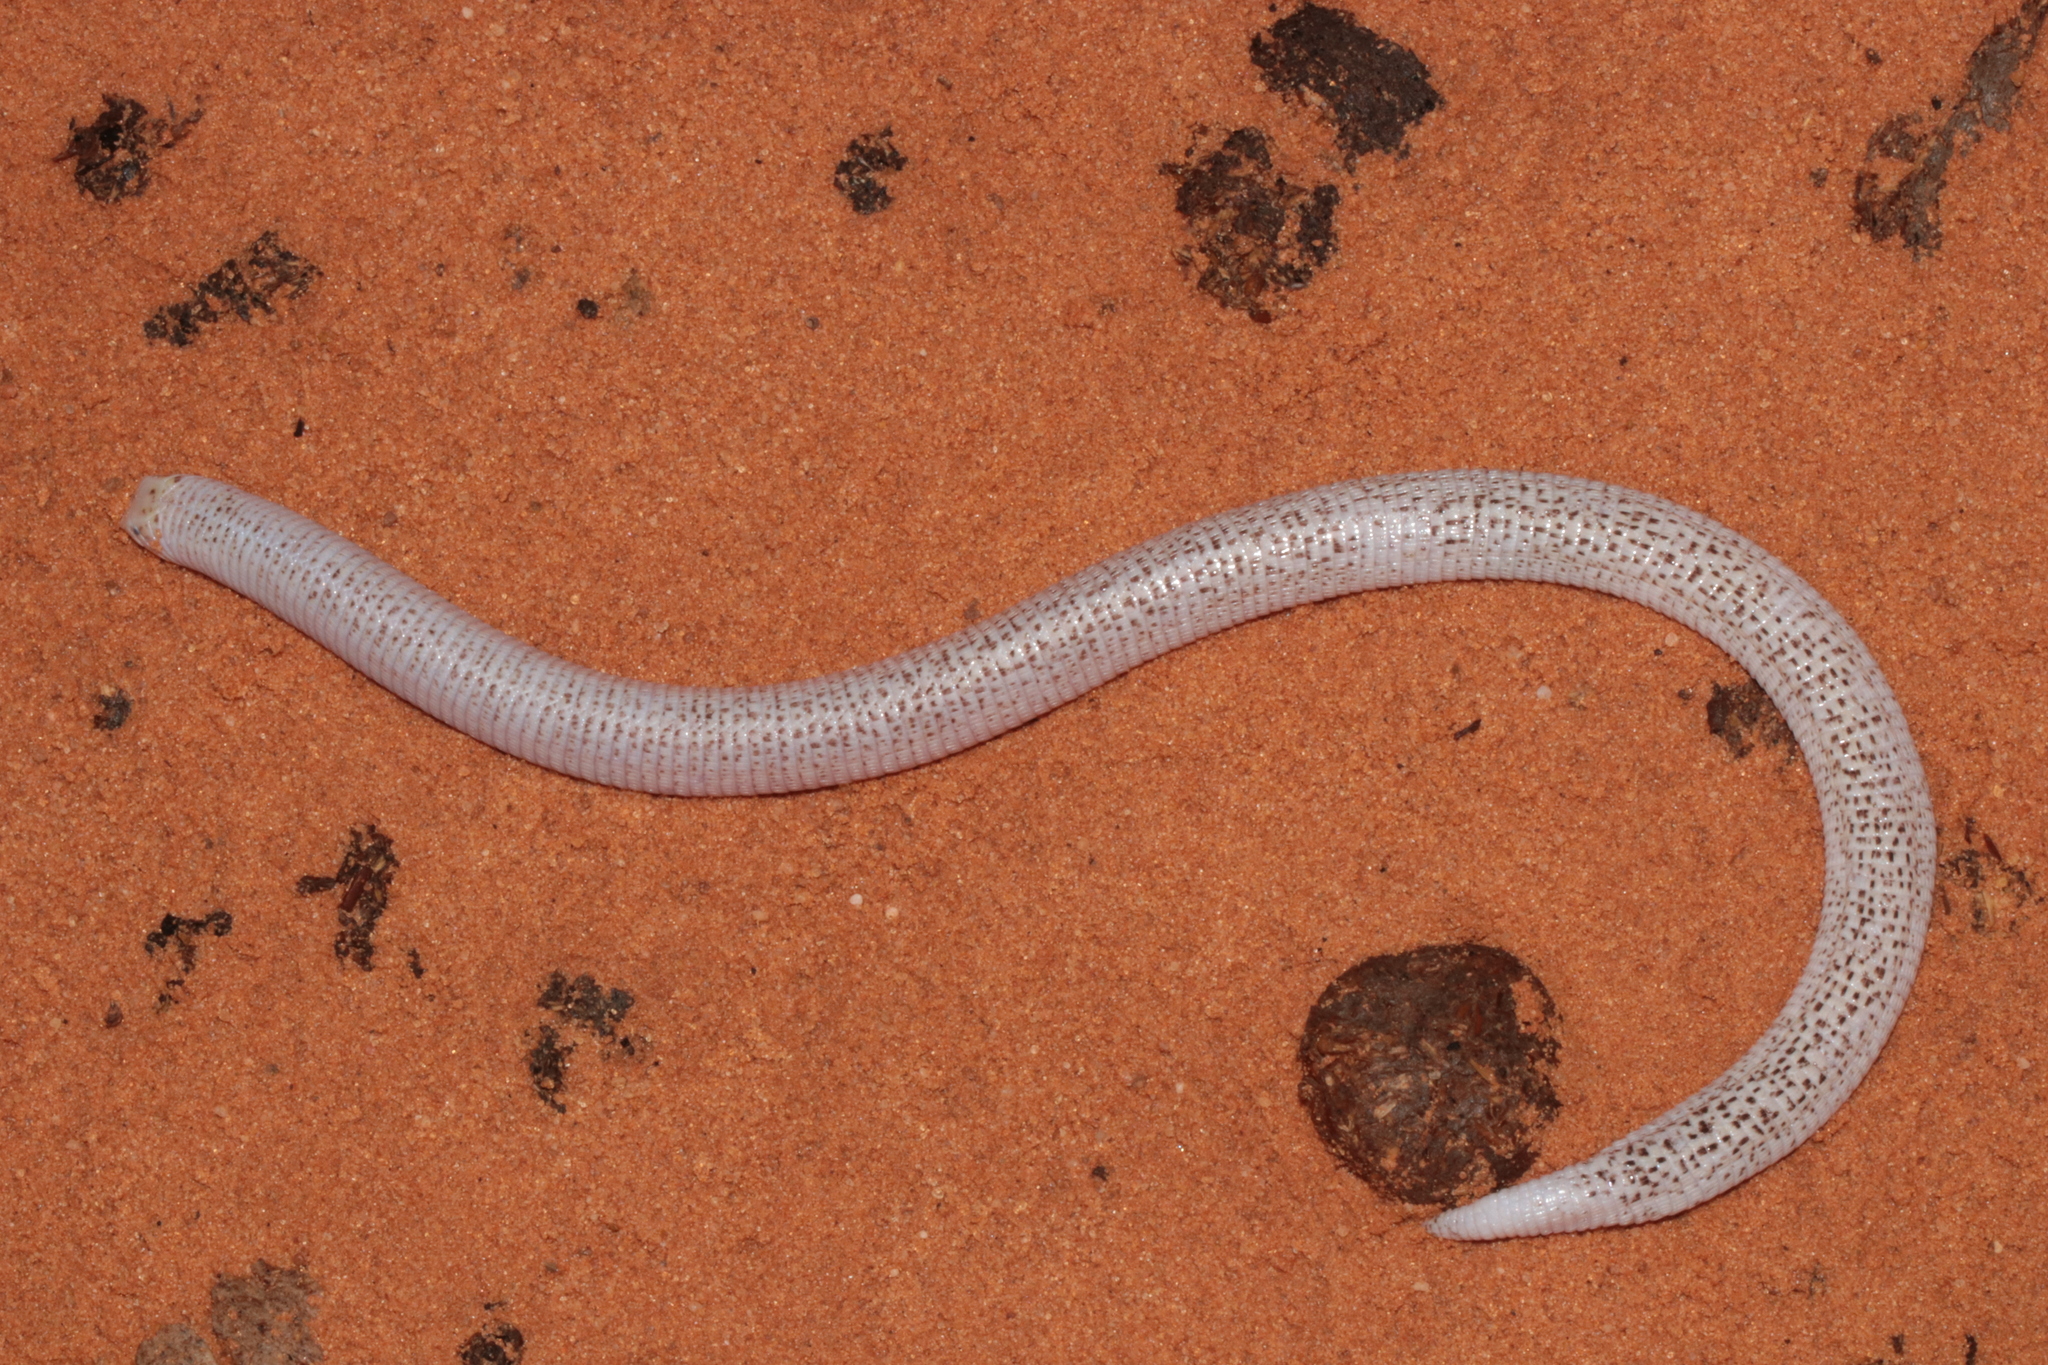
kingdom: Animalia
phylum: Chordata
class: Squamata
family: Trogonophidae
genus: Diplometopon
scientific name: Diplometopon zarudnyi
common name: Zarudnyi's worm lizard
